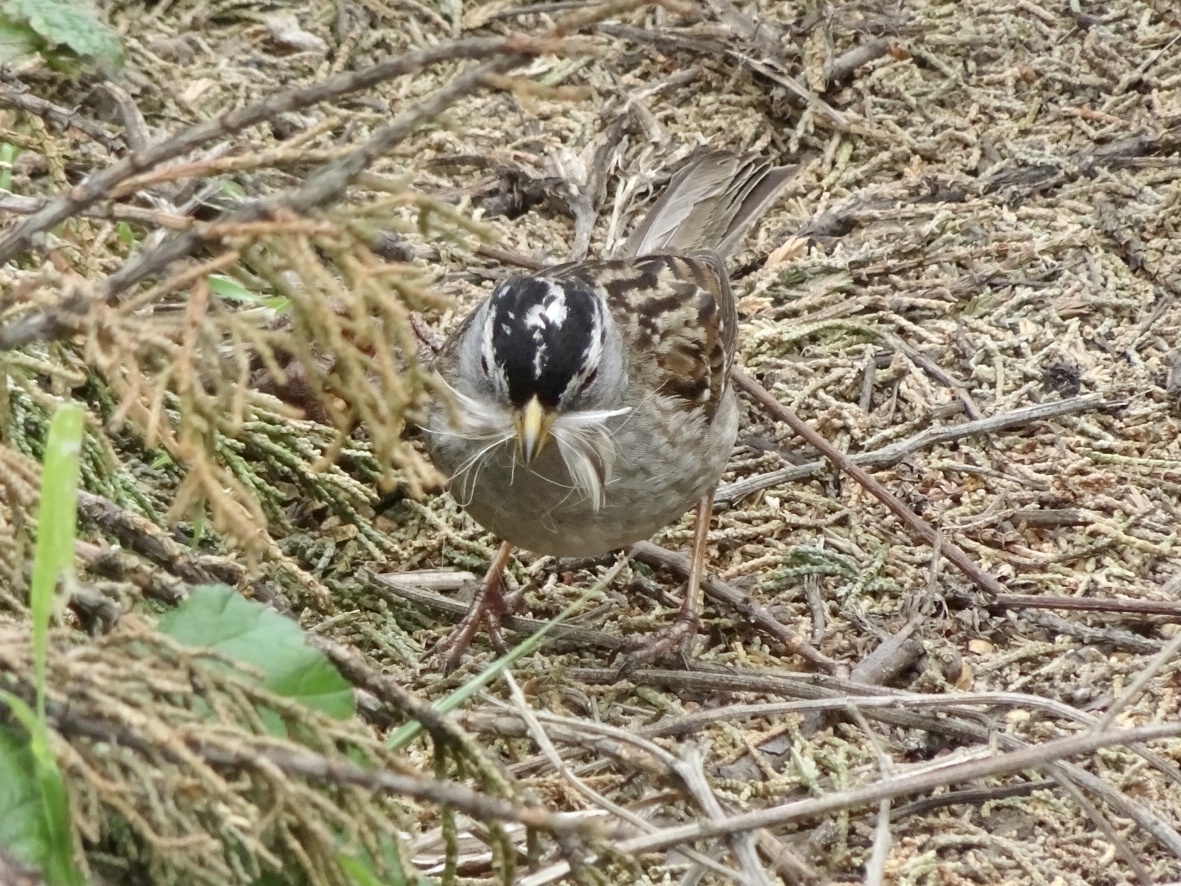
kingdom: Animalia
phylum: Chordata
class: Aves
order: Passeriformes
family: Passerellidae
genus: Zonotrichia
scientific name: Zonotrichia leucophrys
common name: White-crowned sparrow
